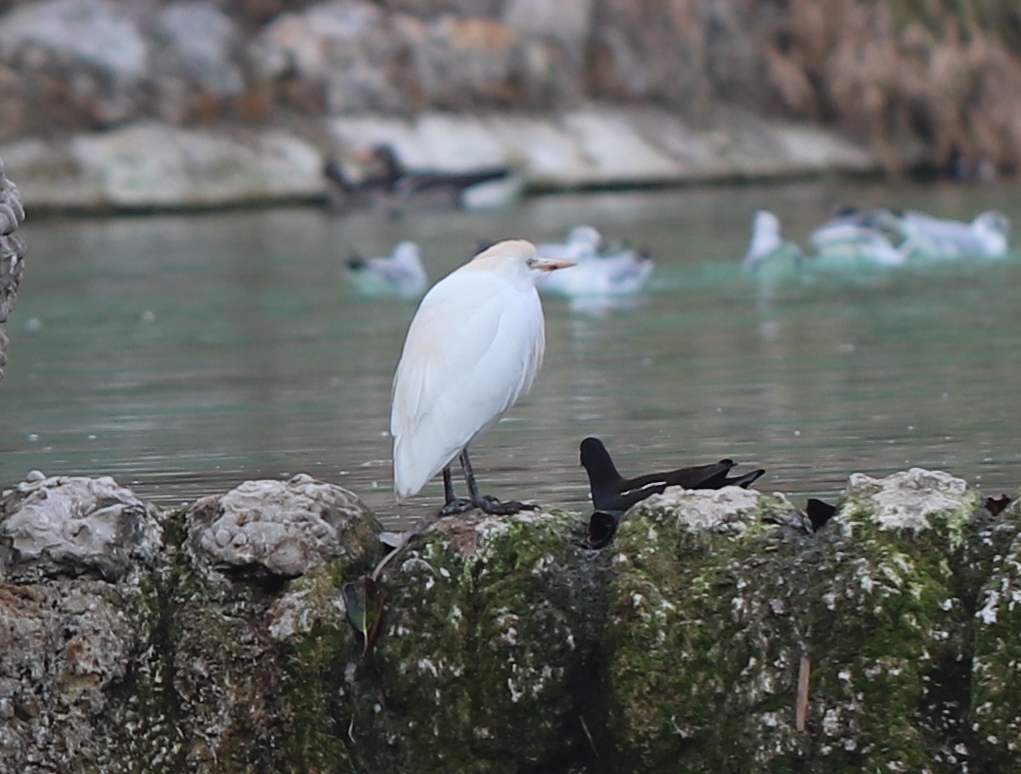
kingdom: Animalia
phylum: Chordata
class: Aves
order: Pelecaniformes
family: Ardeidae
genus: Bubulcus
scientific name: Bubulcus ibis
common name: Cattle egret
